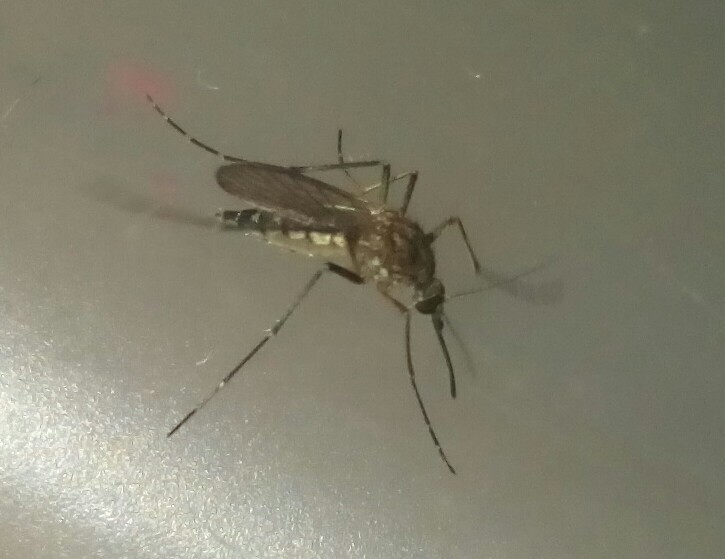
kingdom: Animalia
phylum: Arthropoda
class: Insecta
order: Diptera
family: Culicidae
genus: Aedes
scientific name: Aedes vexans
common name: Inland floodwater mosquito
